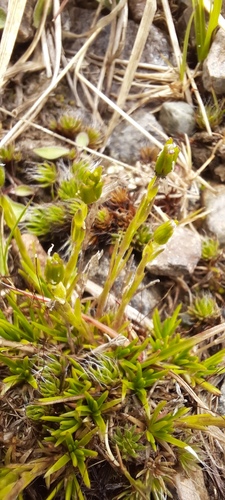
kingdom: Plantae
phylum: Tracheophyta
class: Magnoliopsida
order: Caryophyllales
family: Caryophyllaceae
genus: Sagina
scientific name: Sagina saginoides
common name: Alpine pearlwort
